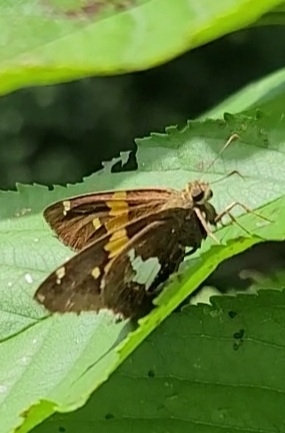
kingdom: Animalia
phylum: Arthropoda
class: Insecta
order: Lepidoptera
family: Hesperiidae
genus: Epargyreus
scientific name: Epargyreus clarus
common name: Silver-spotted skipper
